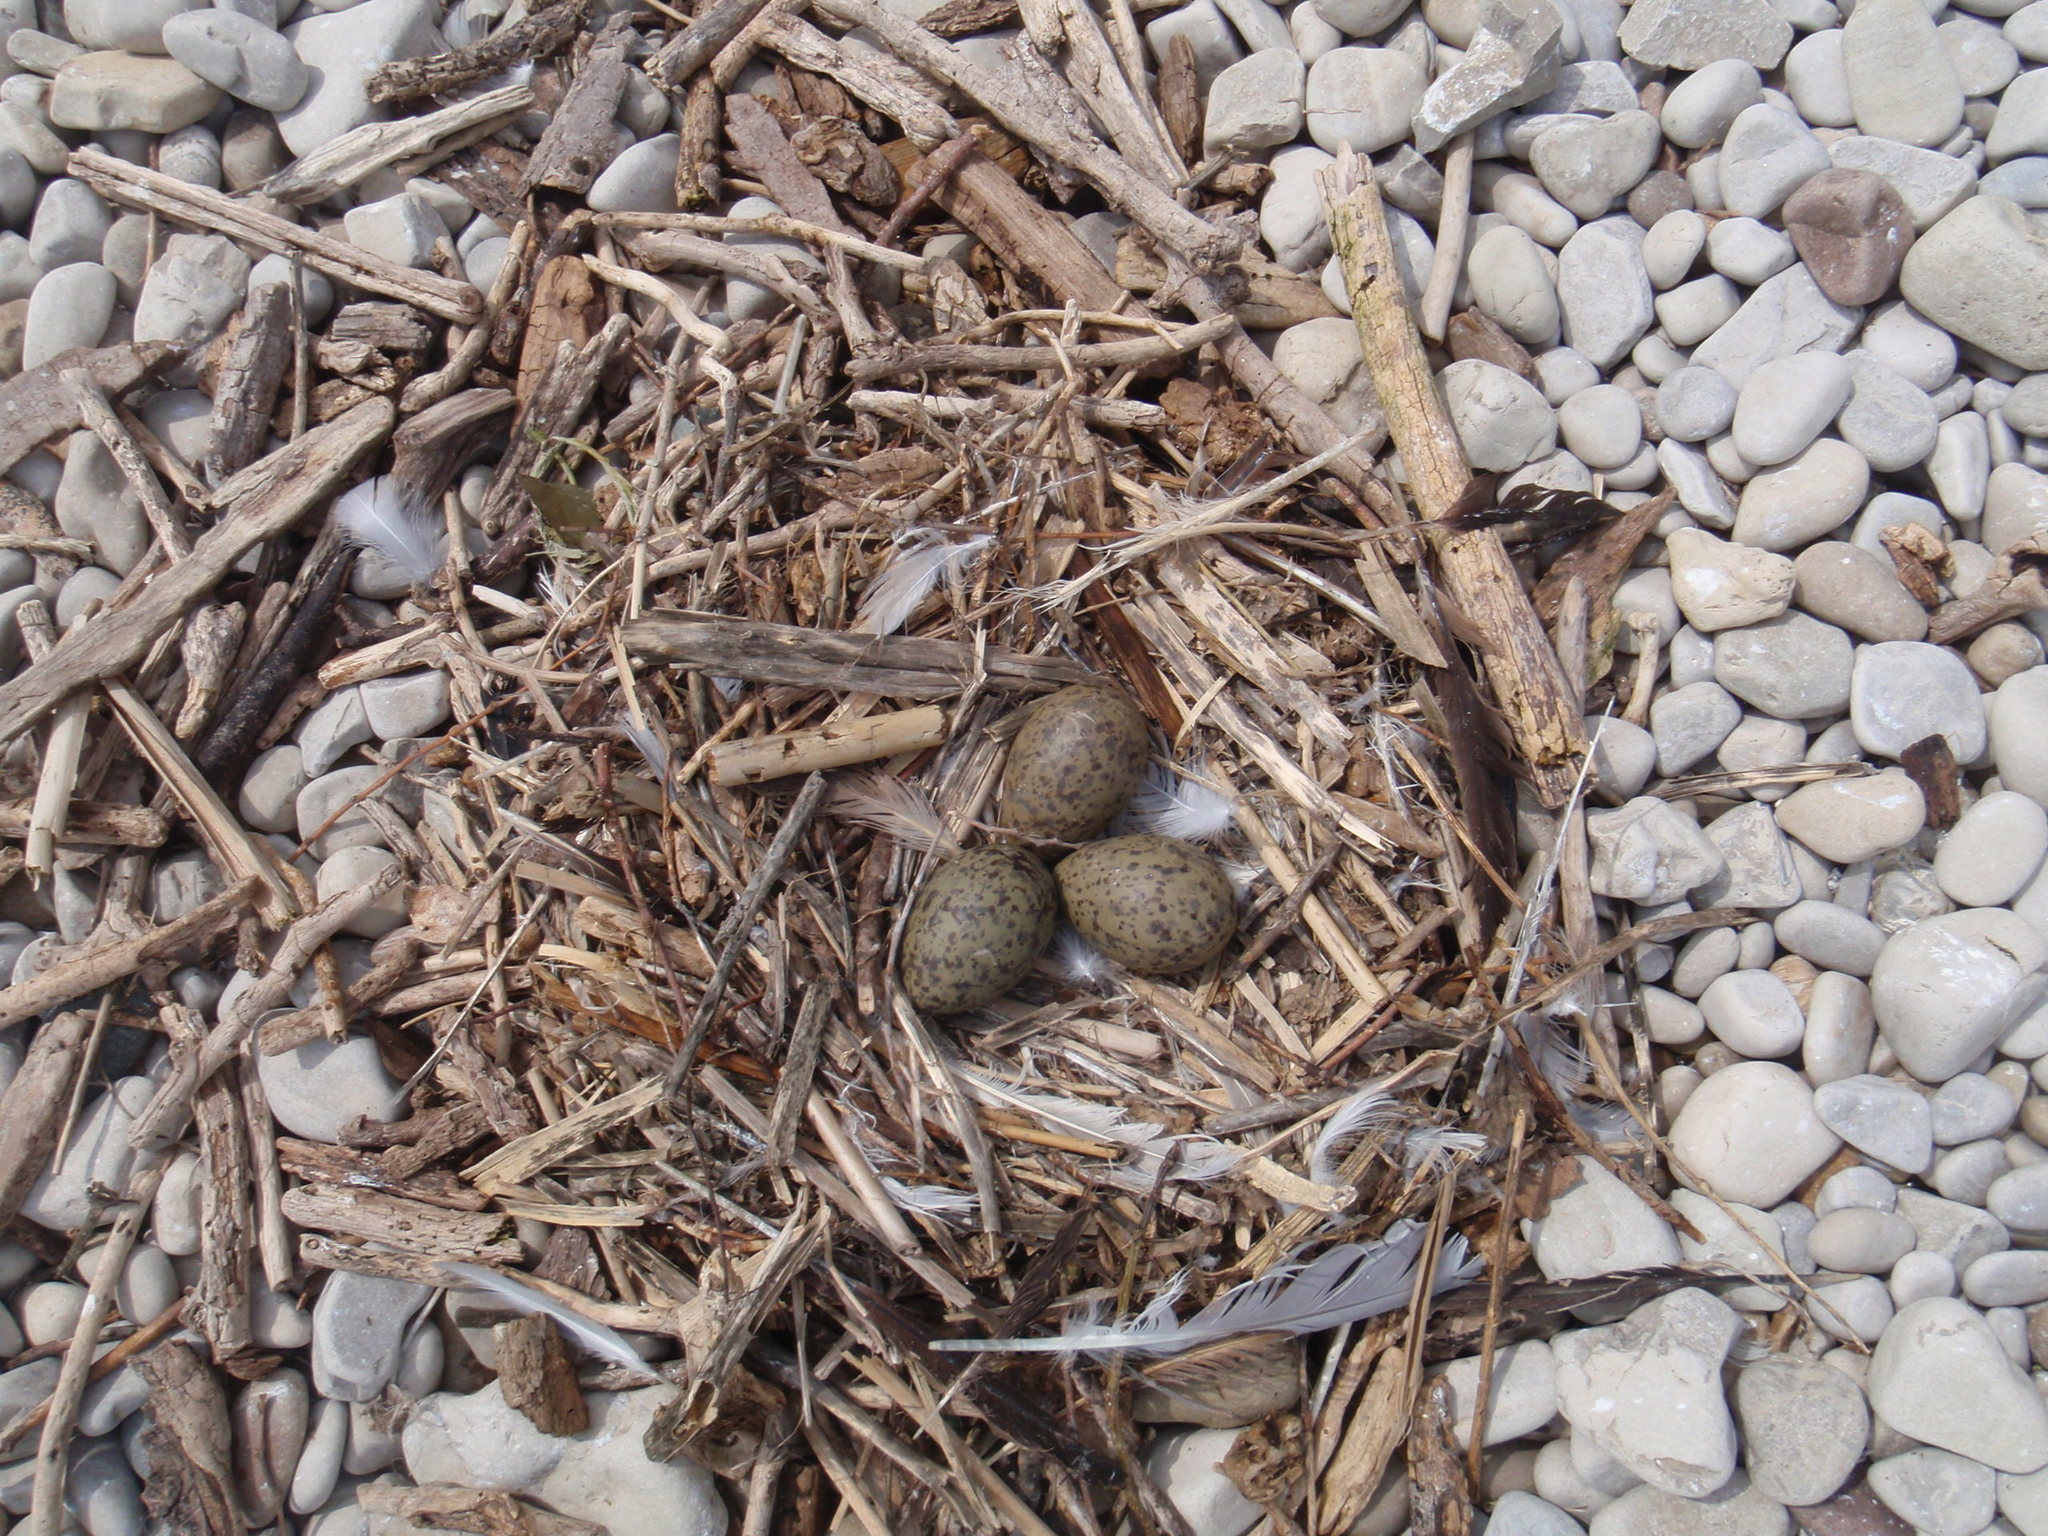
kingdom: Animalia
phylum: Chordata
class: Aves
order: Charadriiformes
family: Laridae
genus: Larus
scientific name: Larus argentatus
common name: Herring gull
